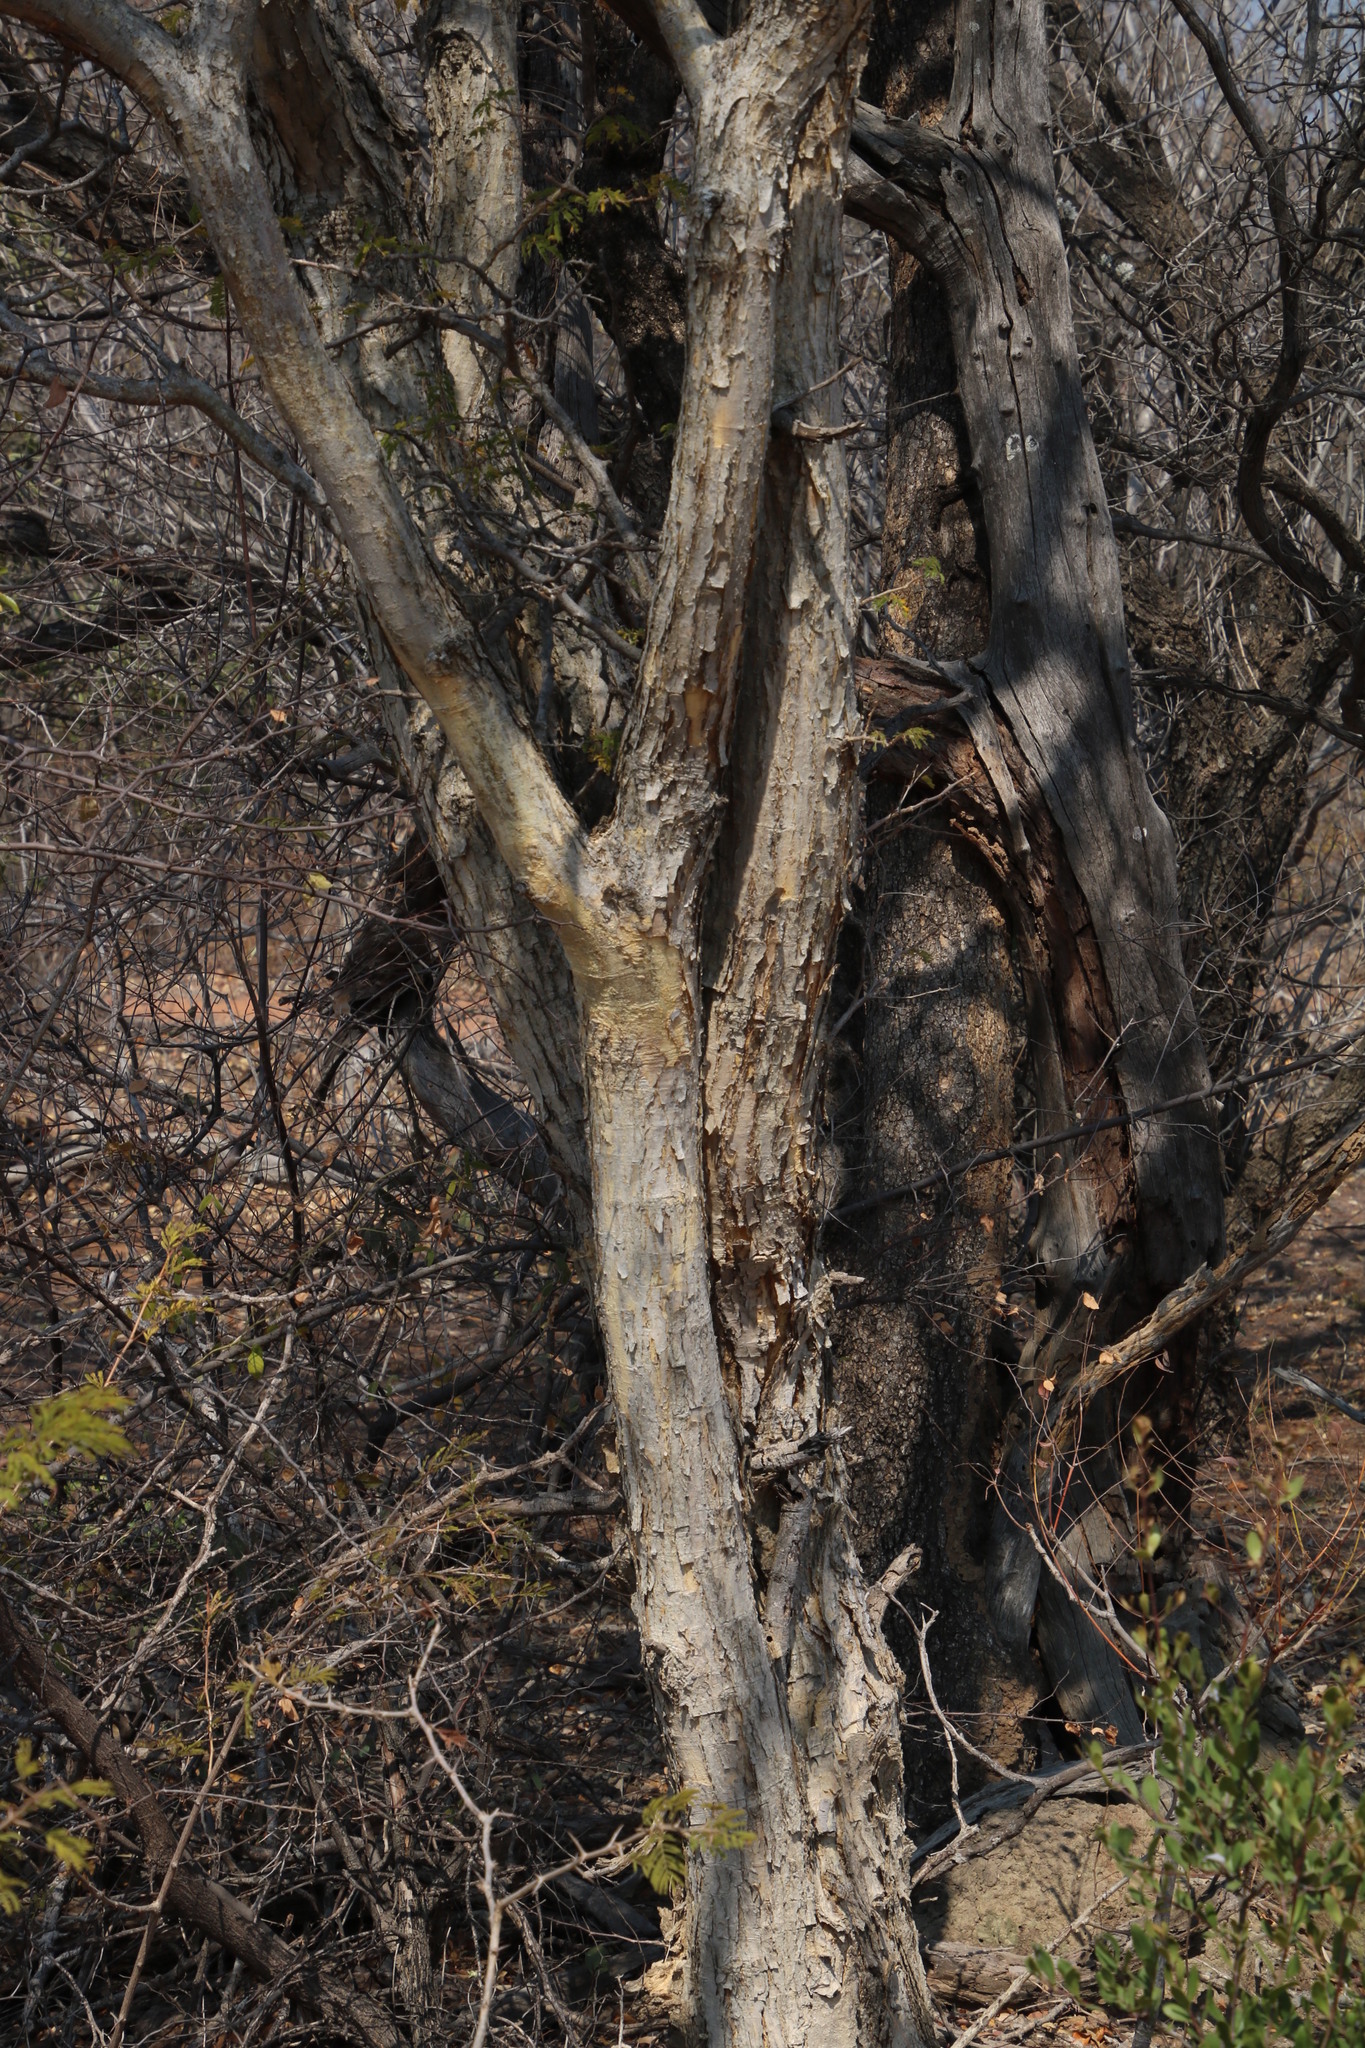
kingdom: Plantae
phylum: Tracheophyta
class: Magnoliopsida
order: Fabales
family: Fabaceae
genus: Senegalia
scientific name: Senegalia erubescens
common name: Bluethorn
